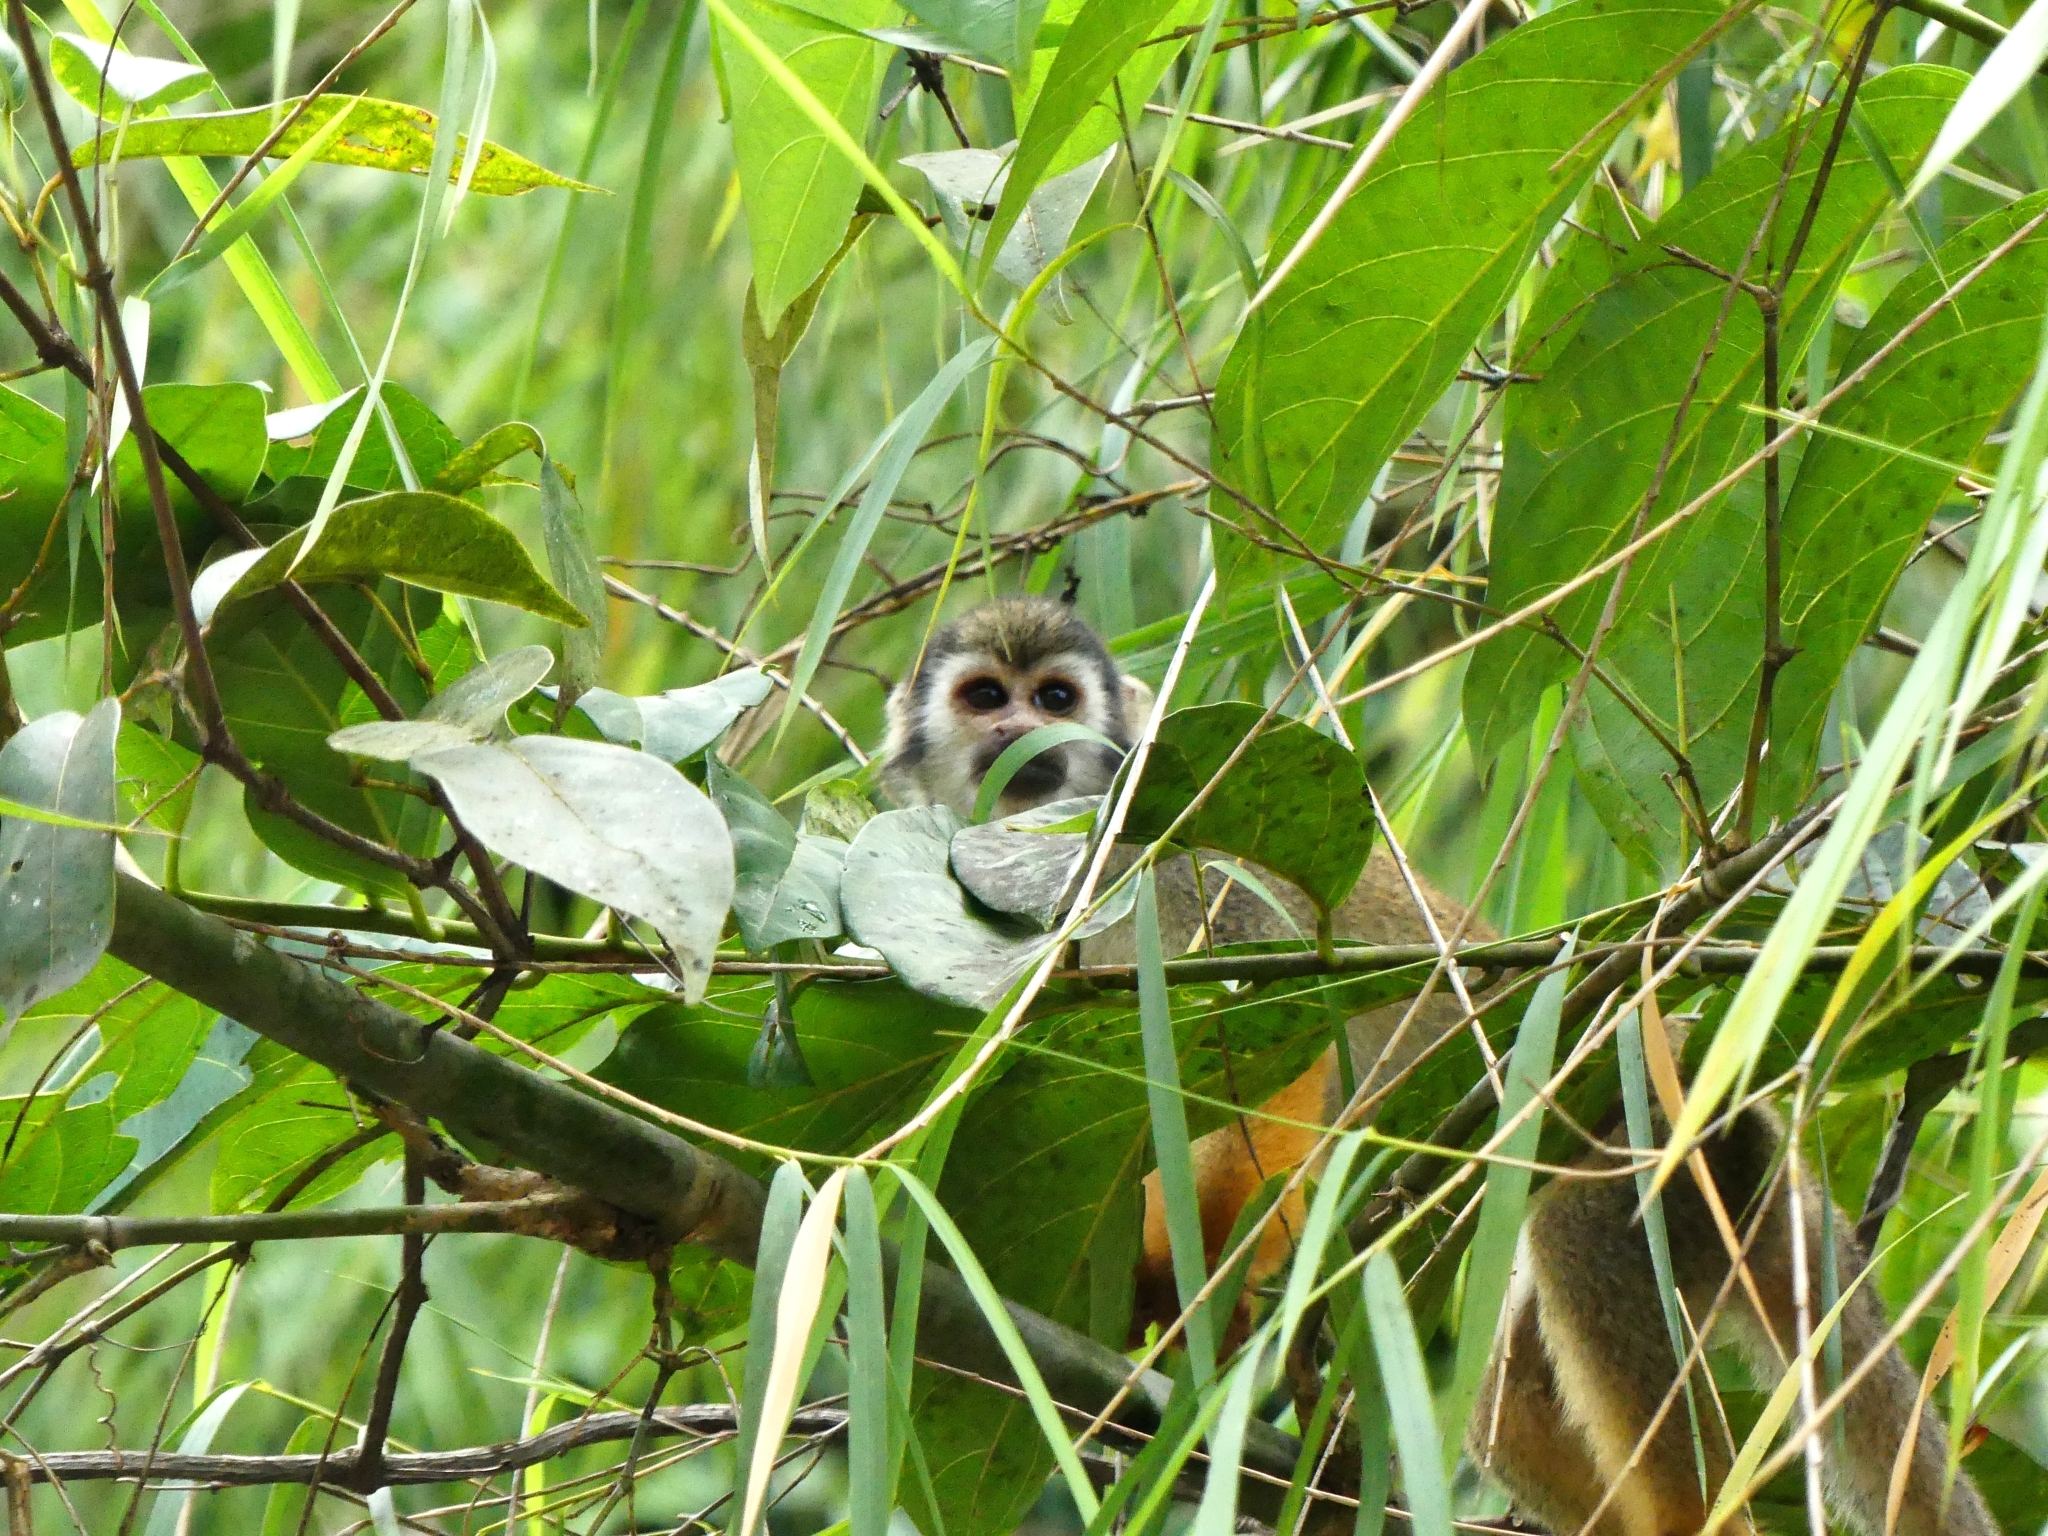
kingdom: Animalia
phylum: Chordata
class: Mammalia
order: Primates
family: Cebidae
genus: Saimiri
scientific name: Saimiri sciureus
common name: Common squirrel monkey
